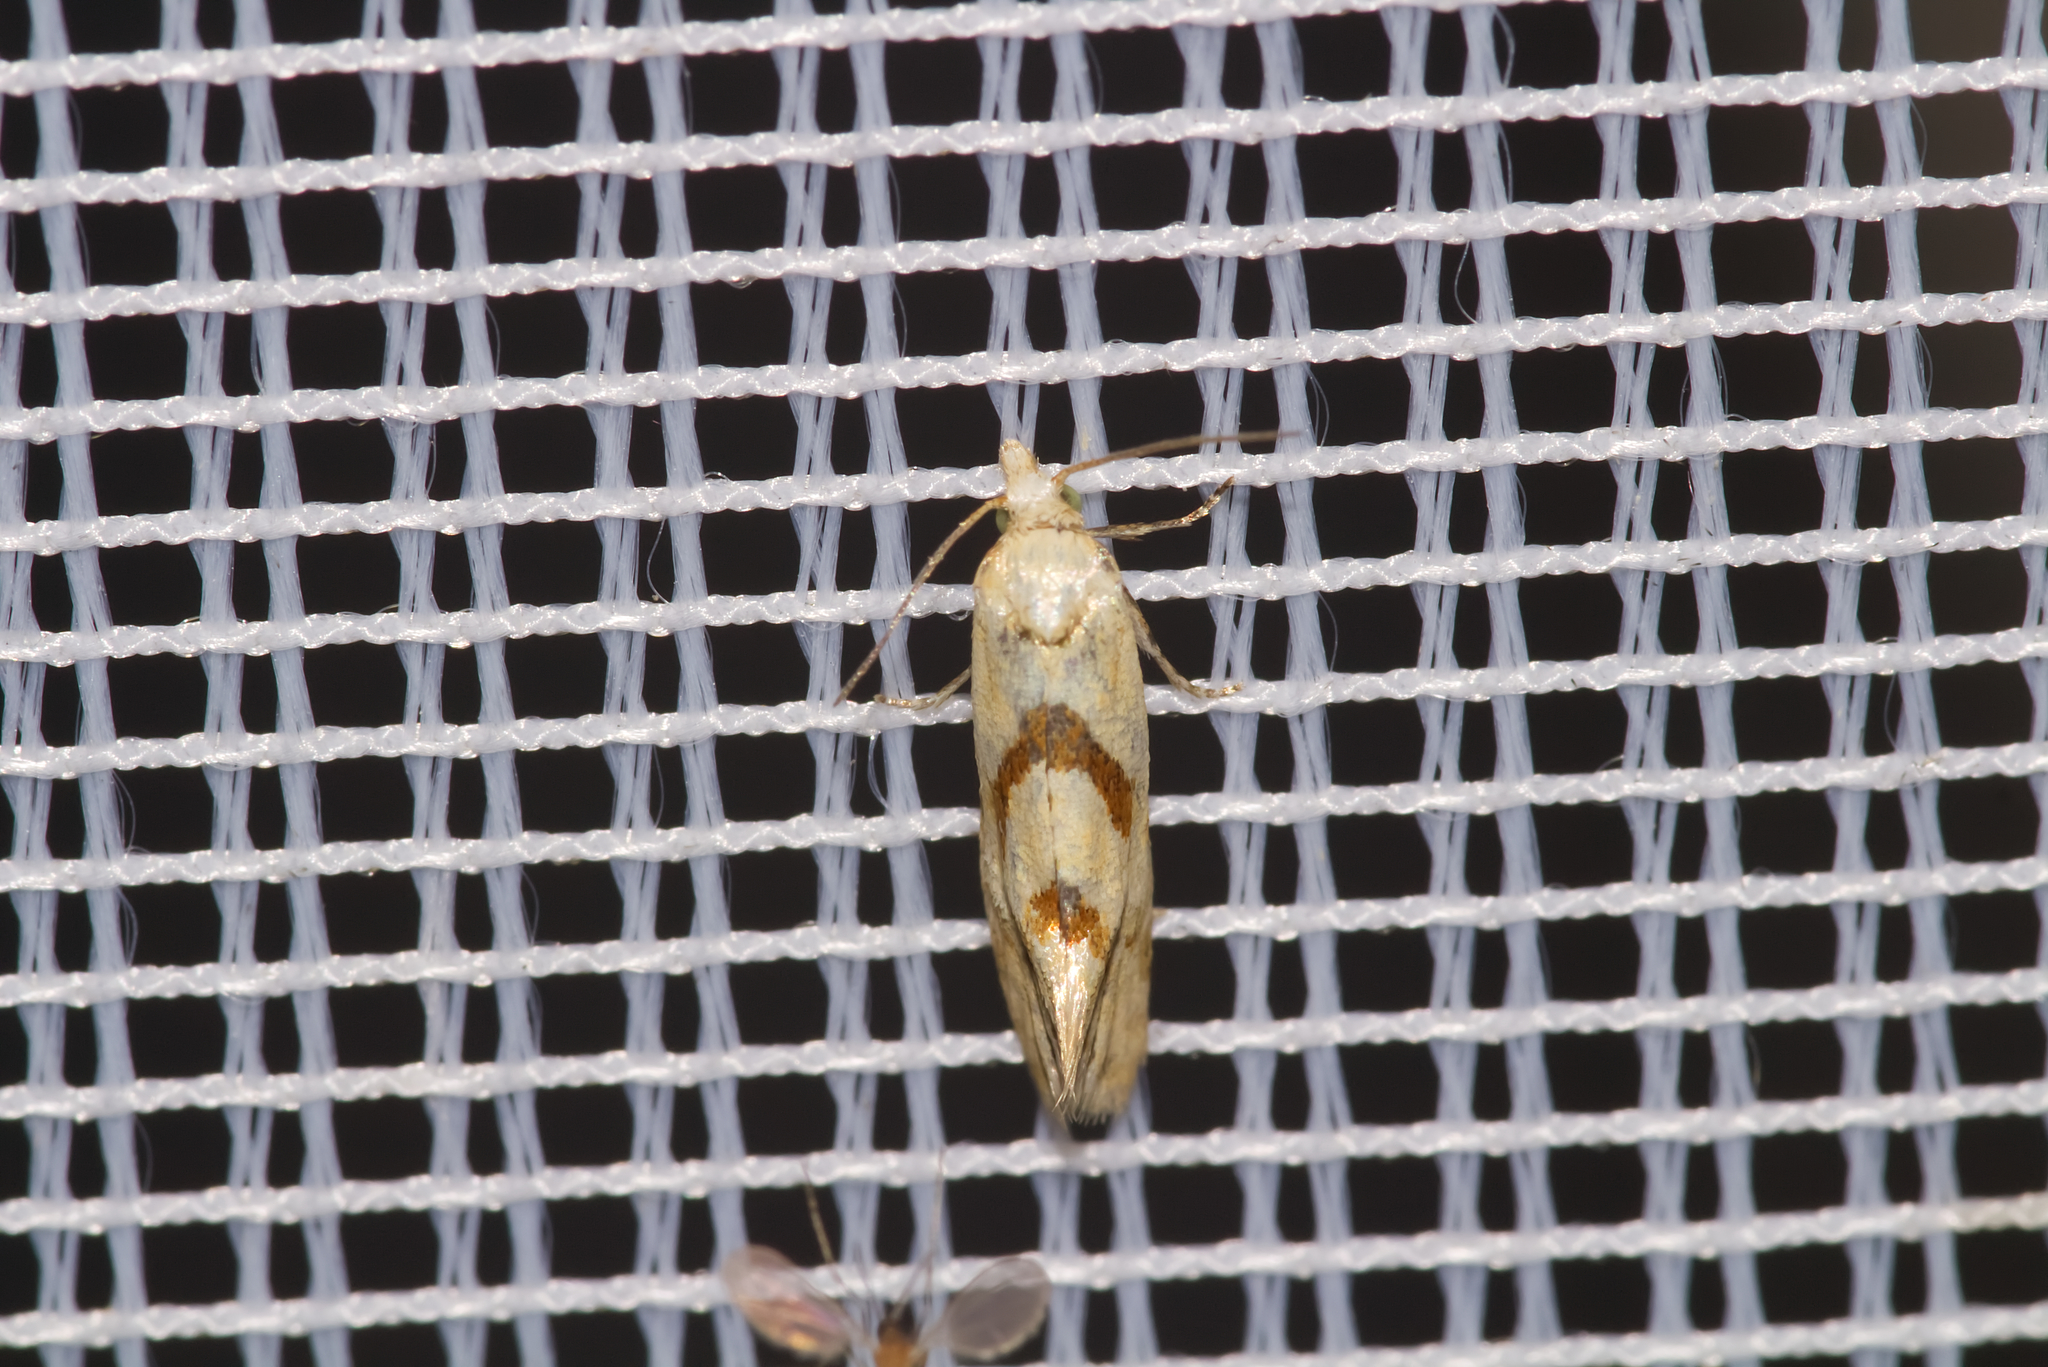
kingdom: Animalia
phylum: Arthropoda
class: Insecta
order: Lepidoptera
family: Tortricidae
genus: Aethes
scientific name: Aethes smeathmanniana
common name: Yarrow conch
